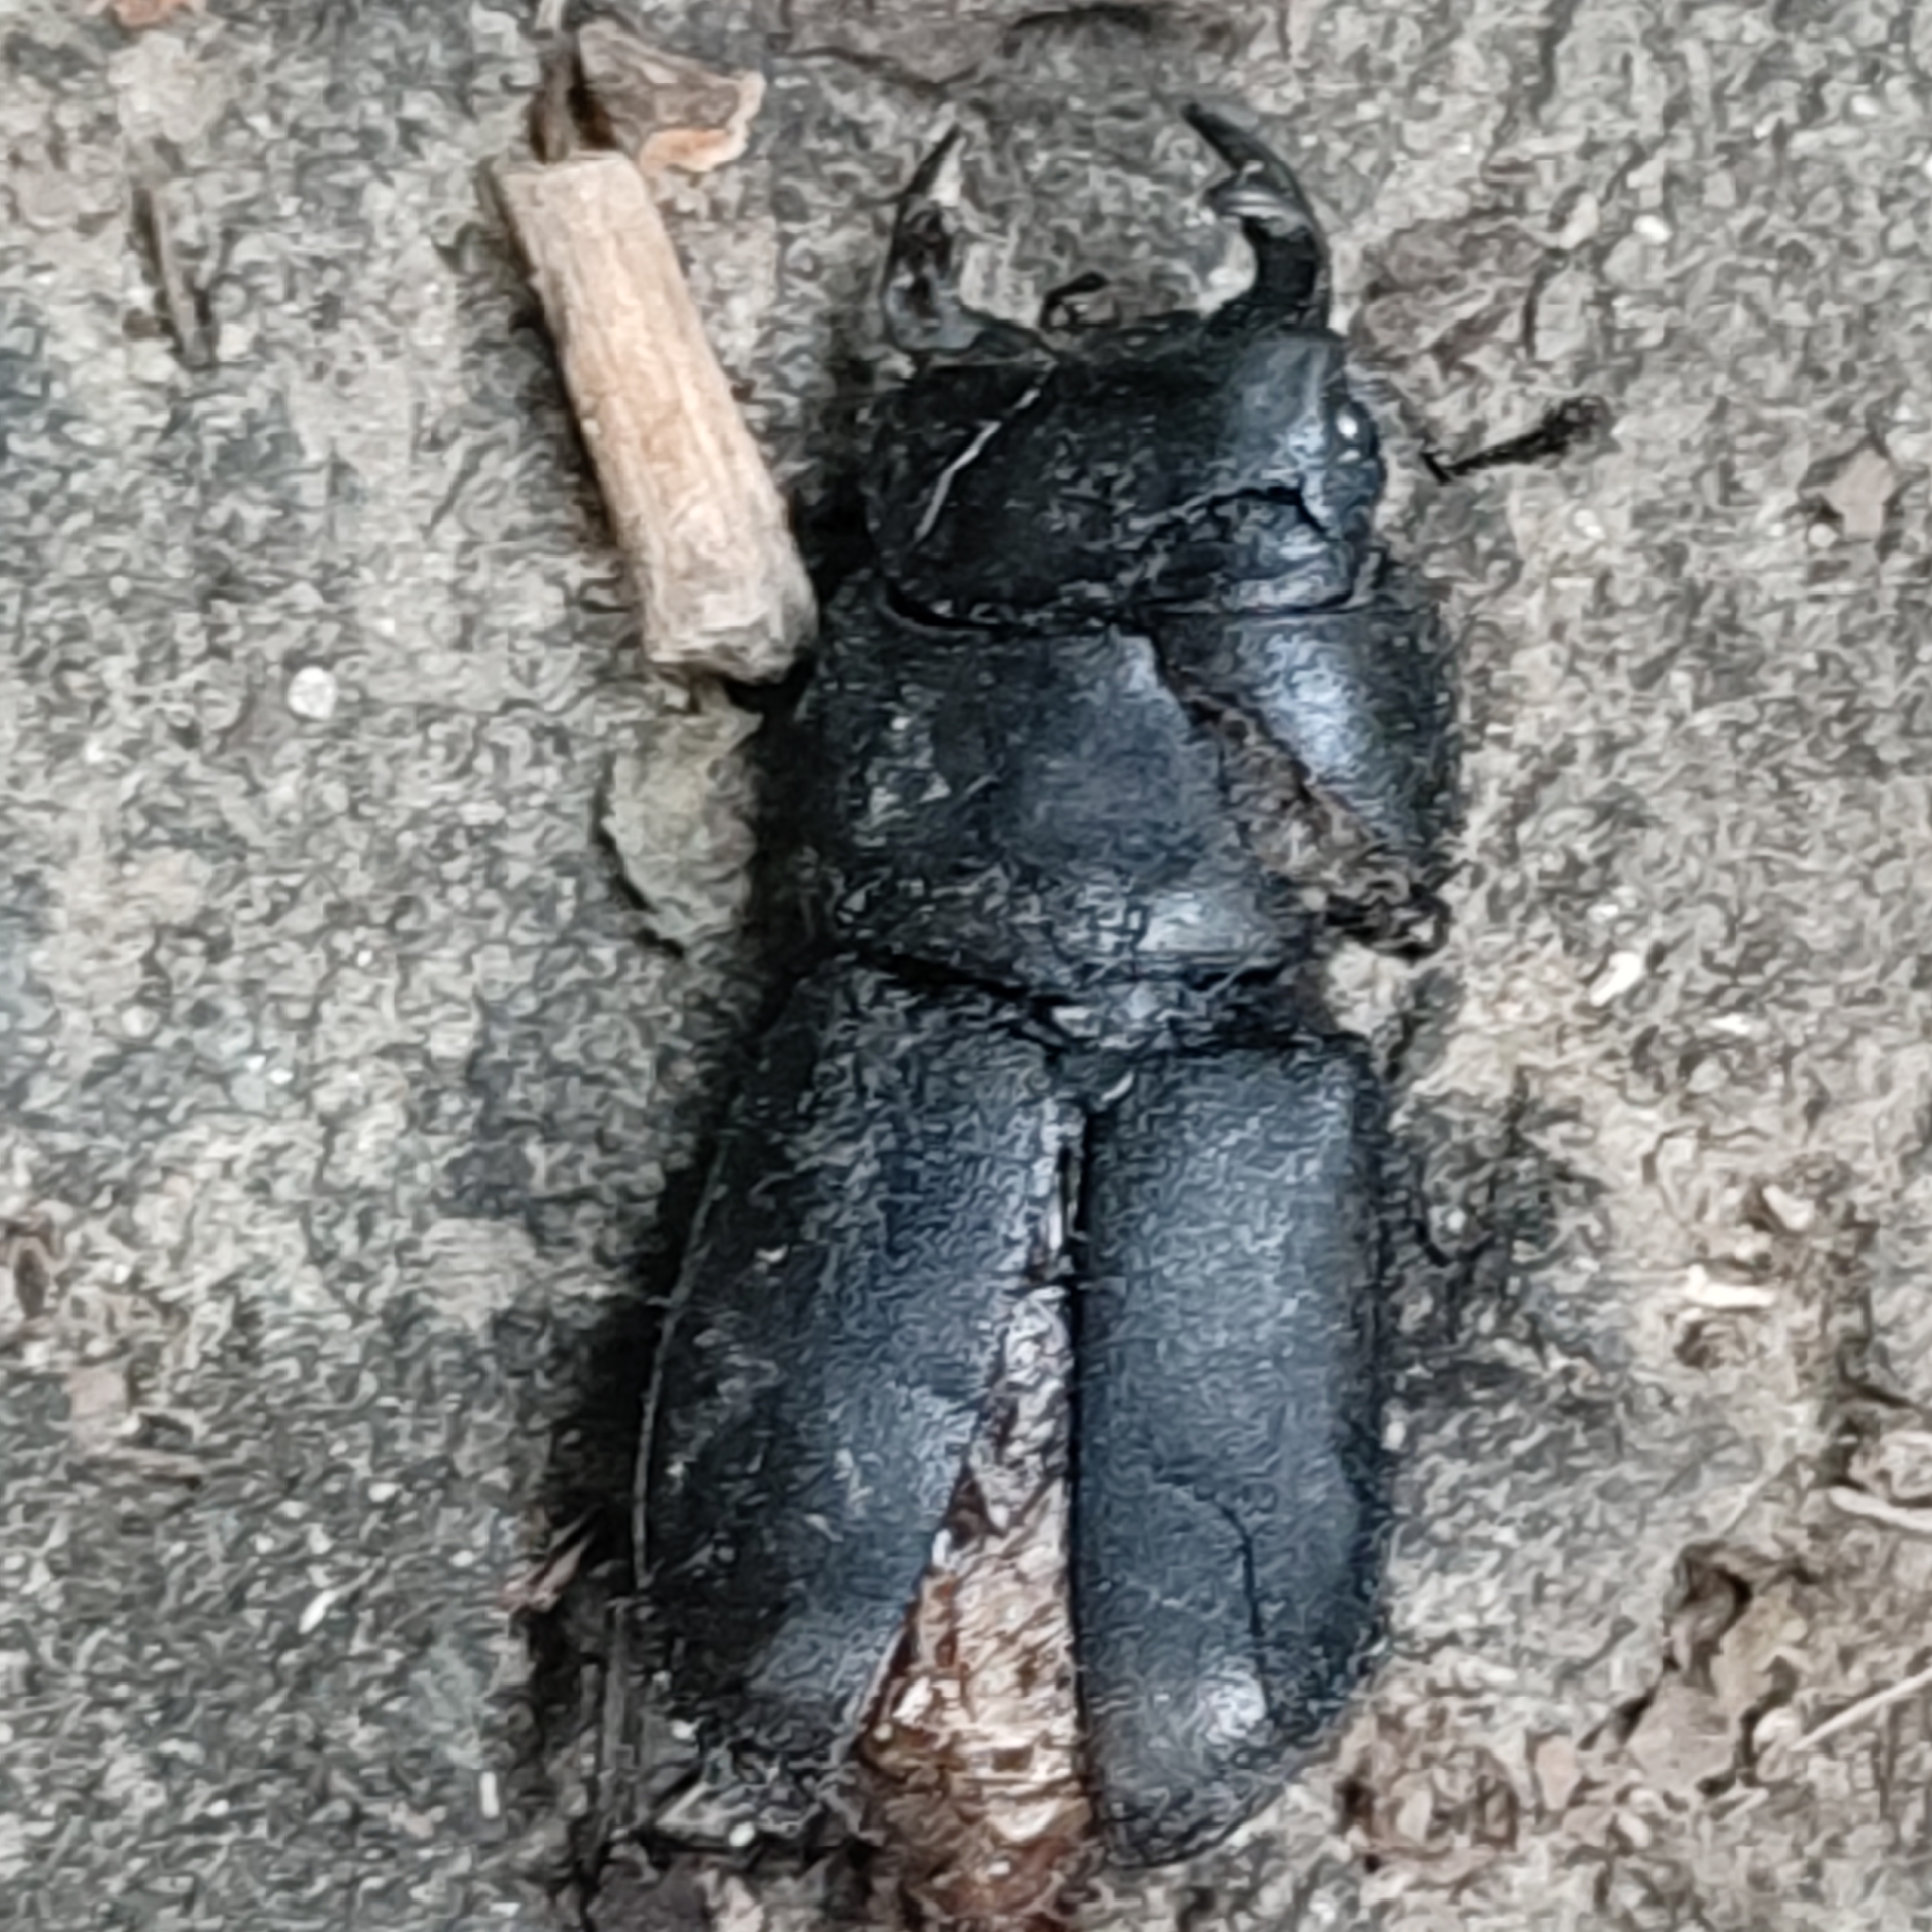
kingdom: Animalia
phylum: Arthropoda
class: Insecta
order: Coleoptera
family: Lucanidae
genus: Dorcus
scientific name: Dorcus parallelipipedus
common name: Lesser stag beetle
